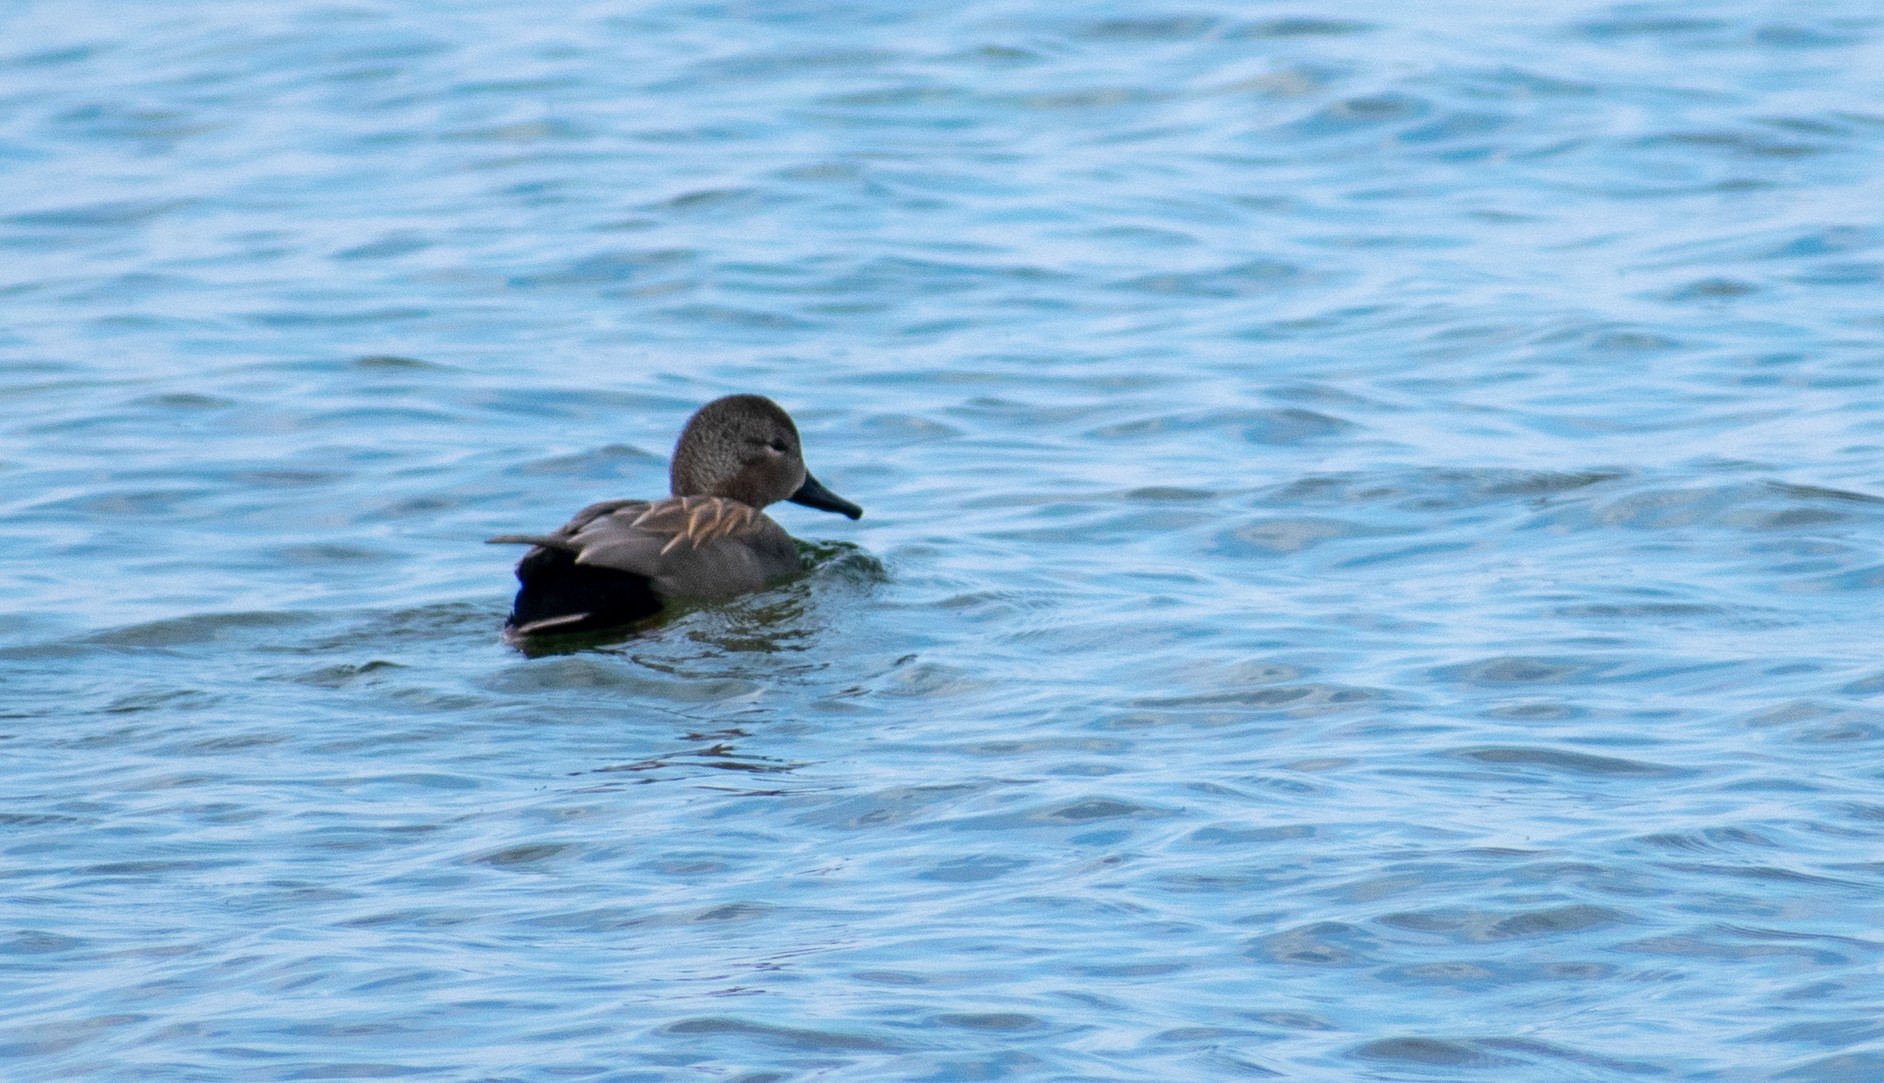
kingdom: Animalia
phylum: Chordata
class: Aves
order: Anseriformes
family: Anatidae
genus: Mareca
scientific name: Mareca strepera
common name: Gadwall
